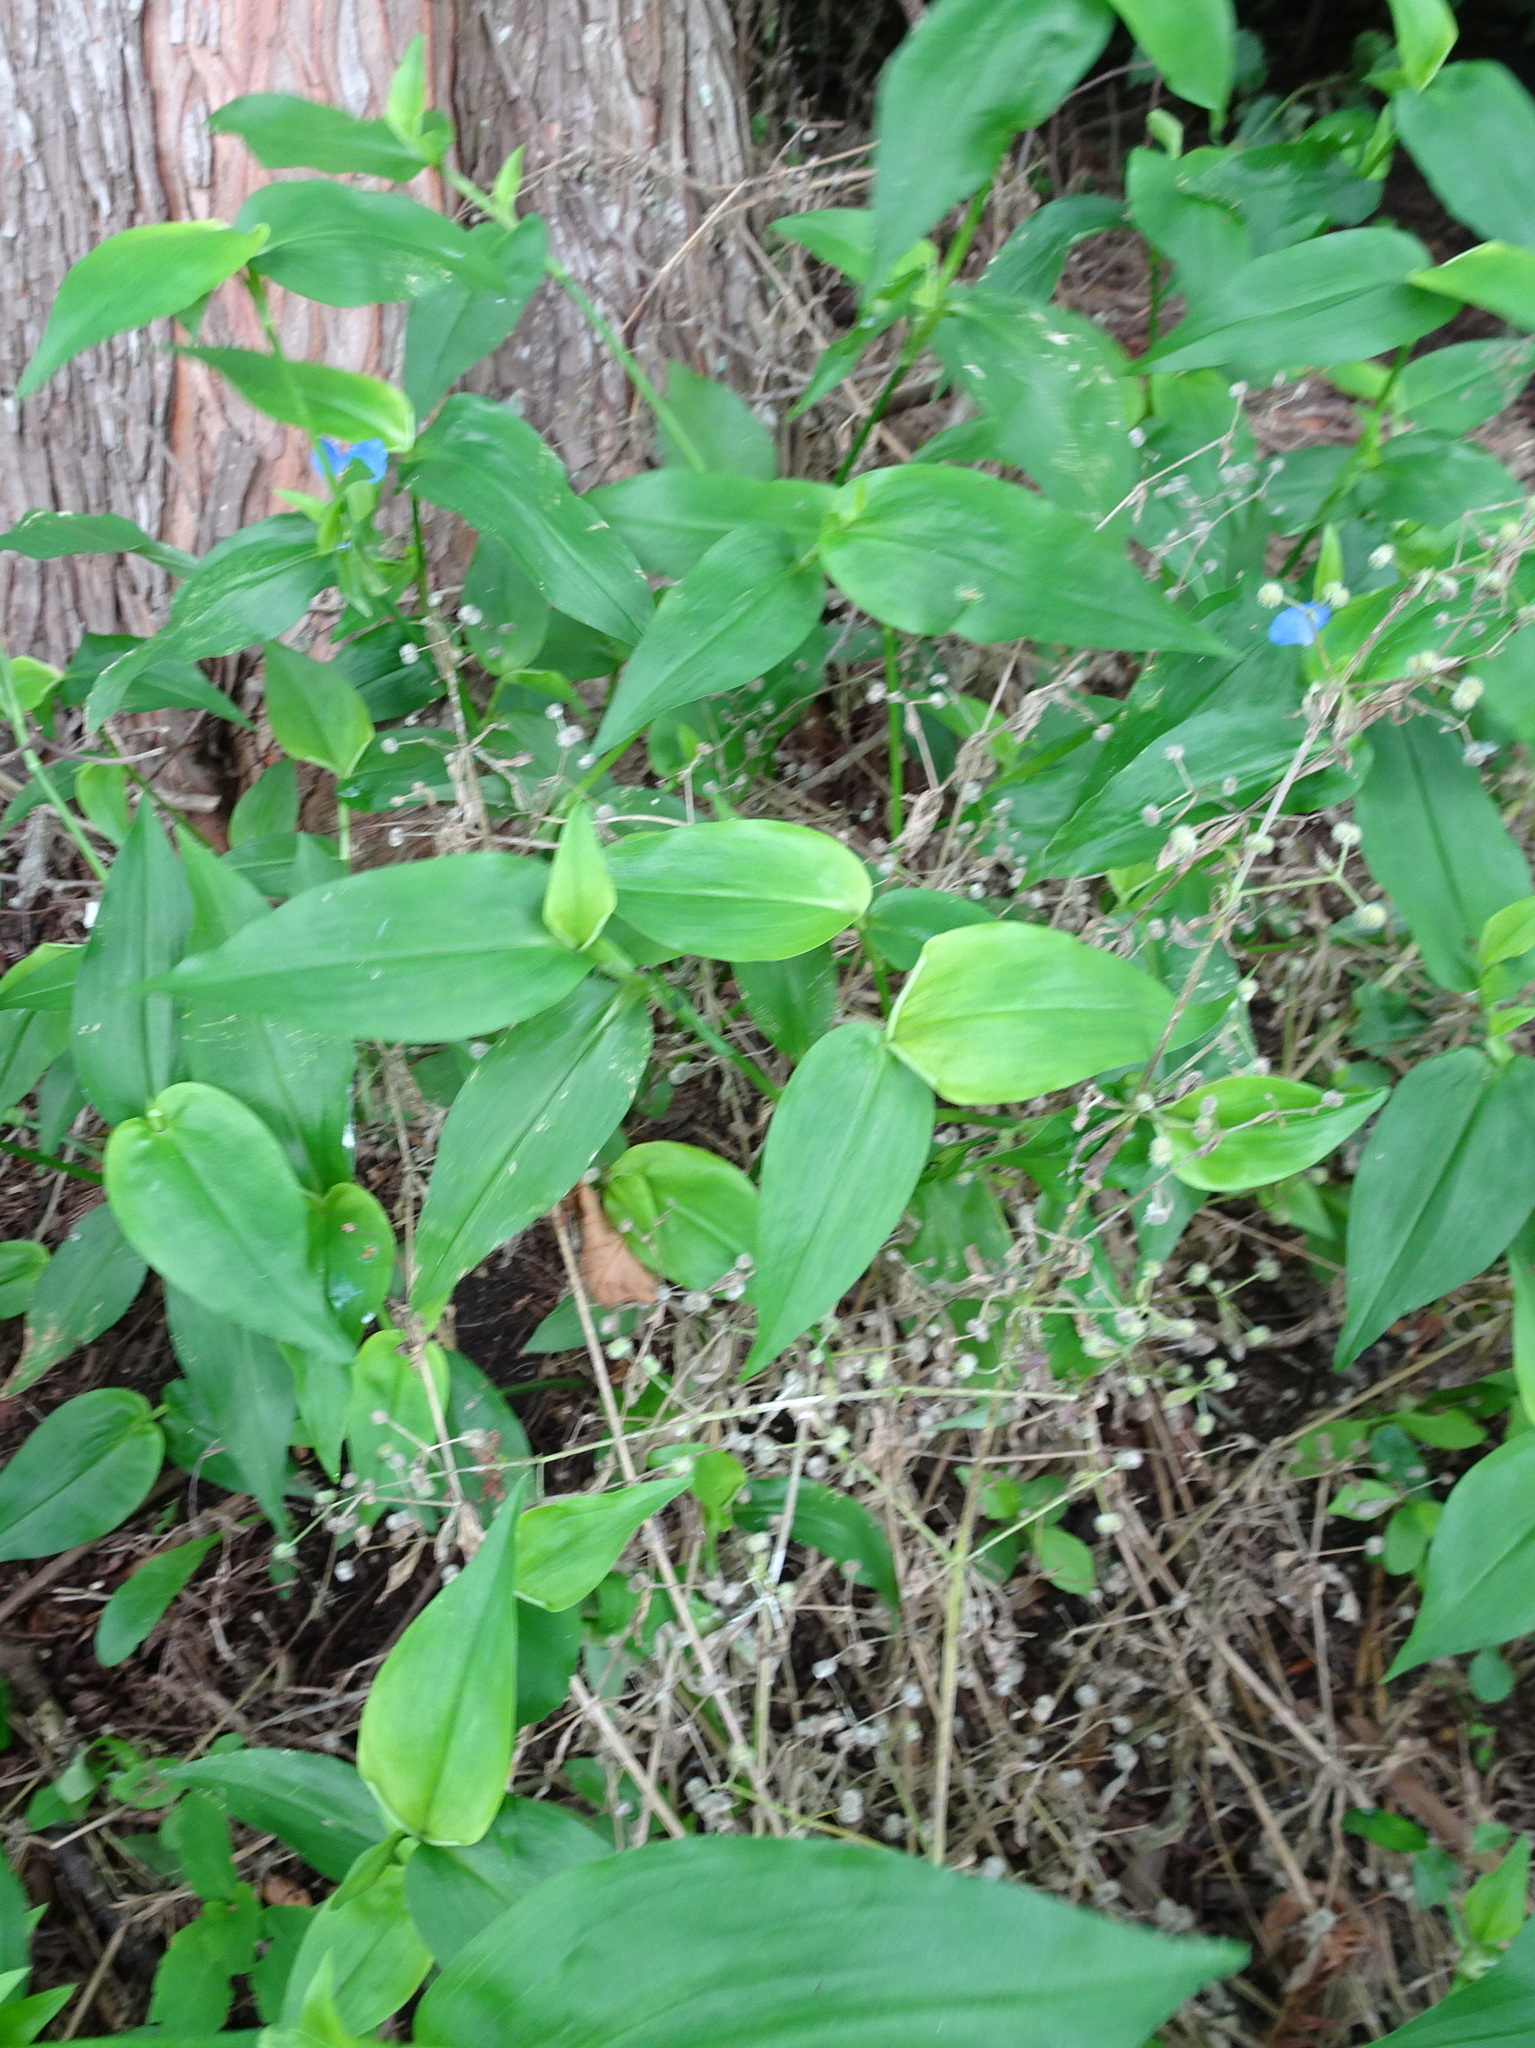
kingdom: Plantae
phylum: Tracheophyta
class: Liliopsida
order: Commelinales
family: Commelinaceae
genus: Commelina
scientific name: Commelina communis
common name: Asiatic dayflower
